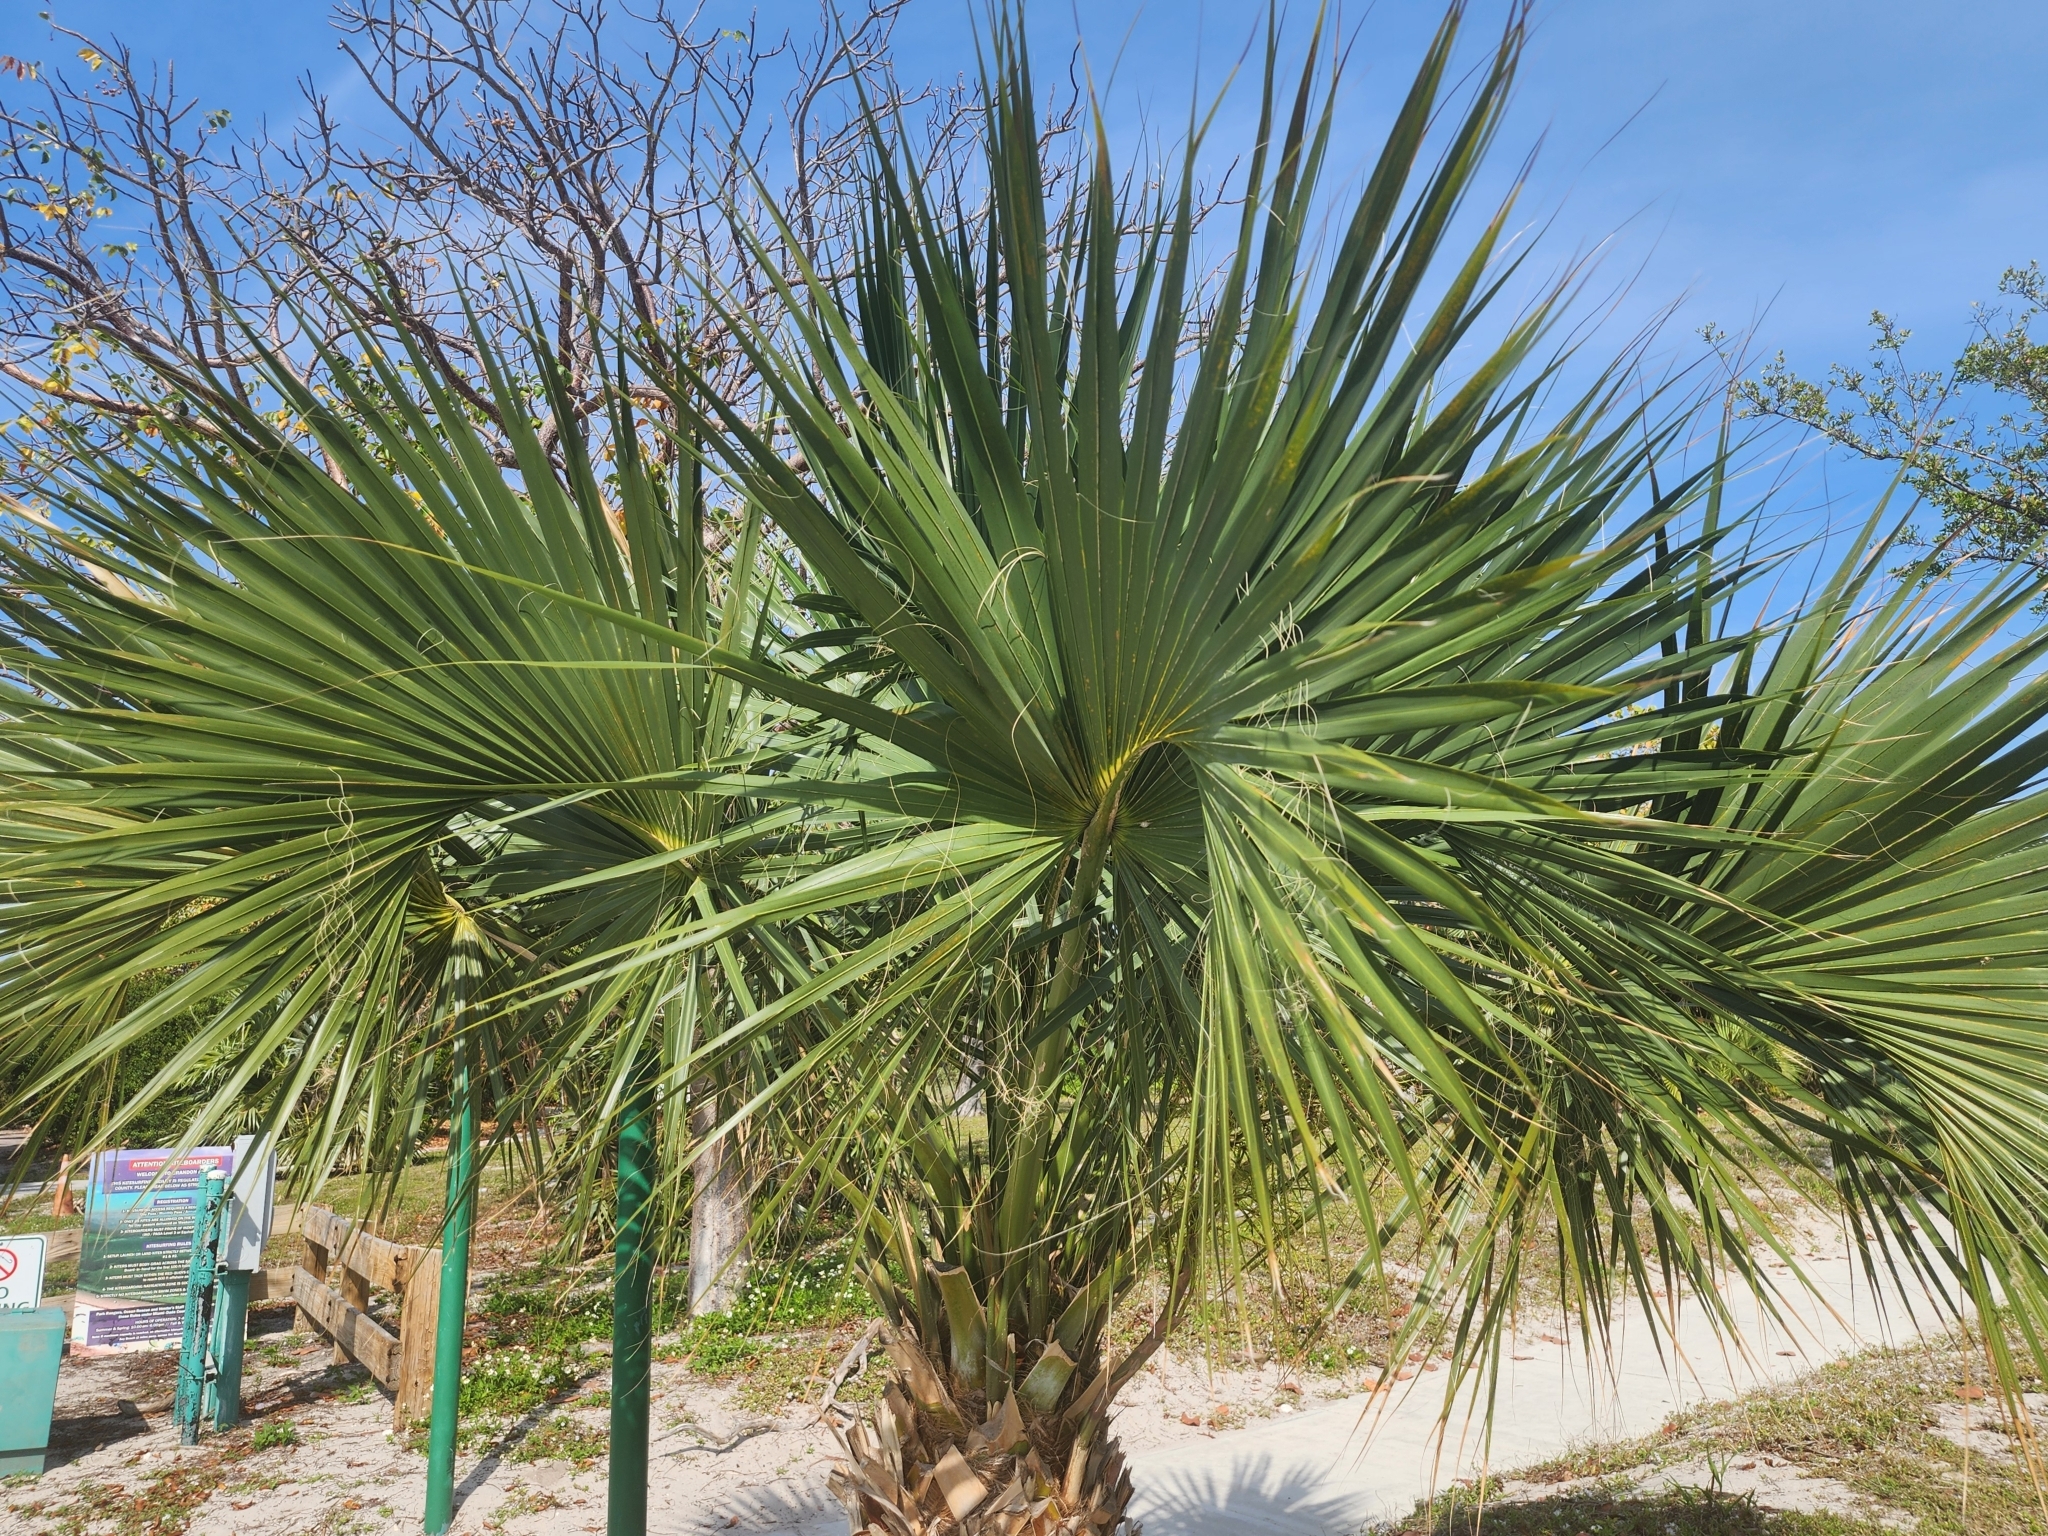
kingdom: Plantae
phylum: Tracheophyta
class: Liliopsida
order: Arecales
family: Arecaceae
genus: Sabal
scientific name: Sabal palmetto
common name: Blue palmetto
